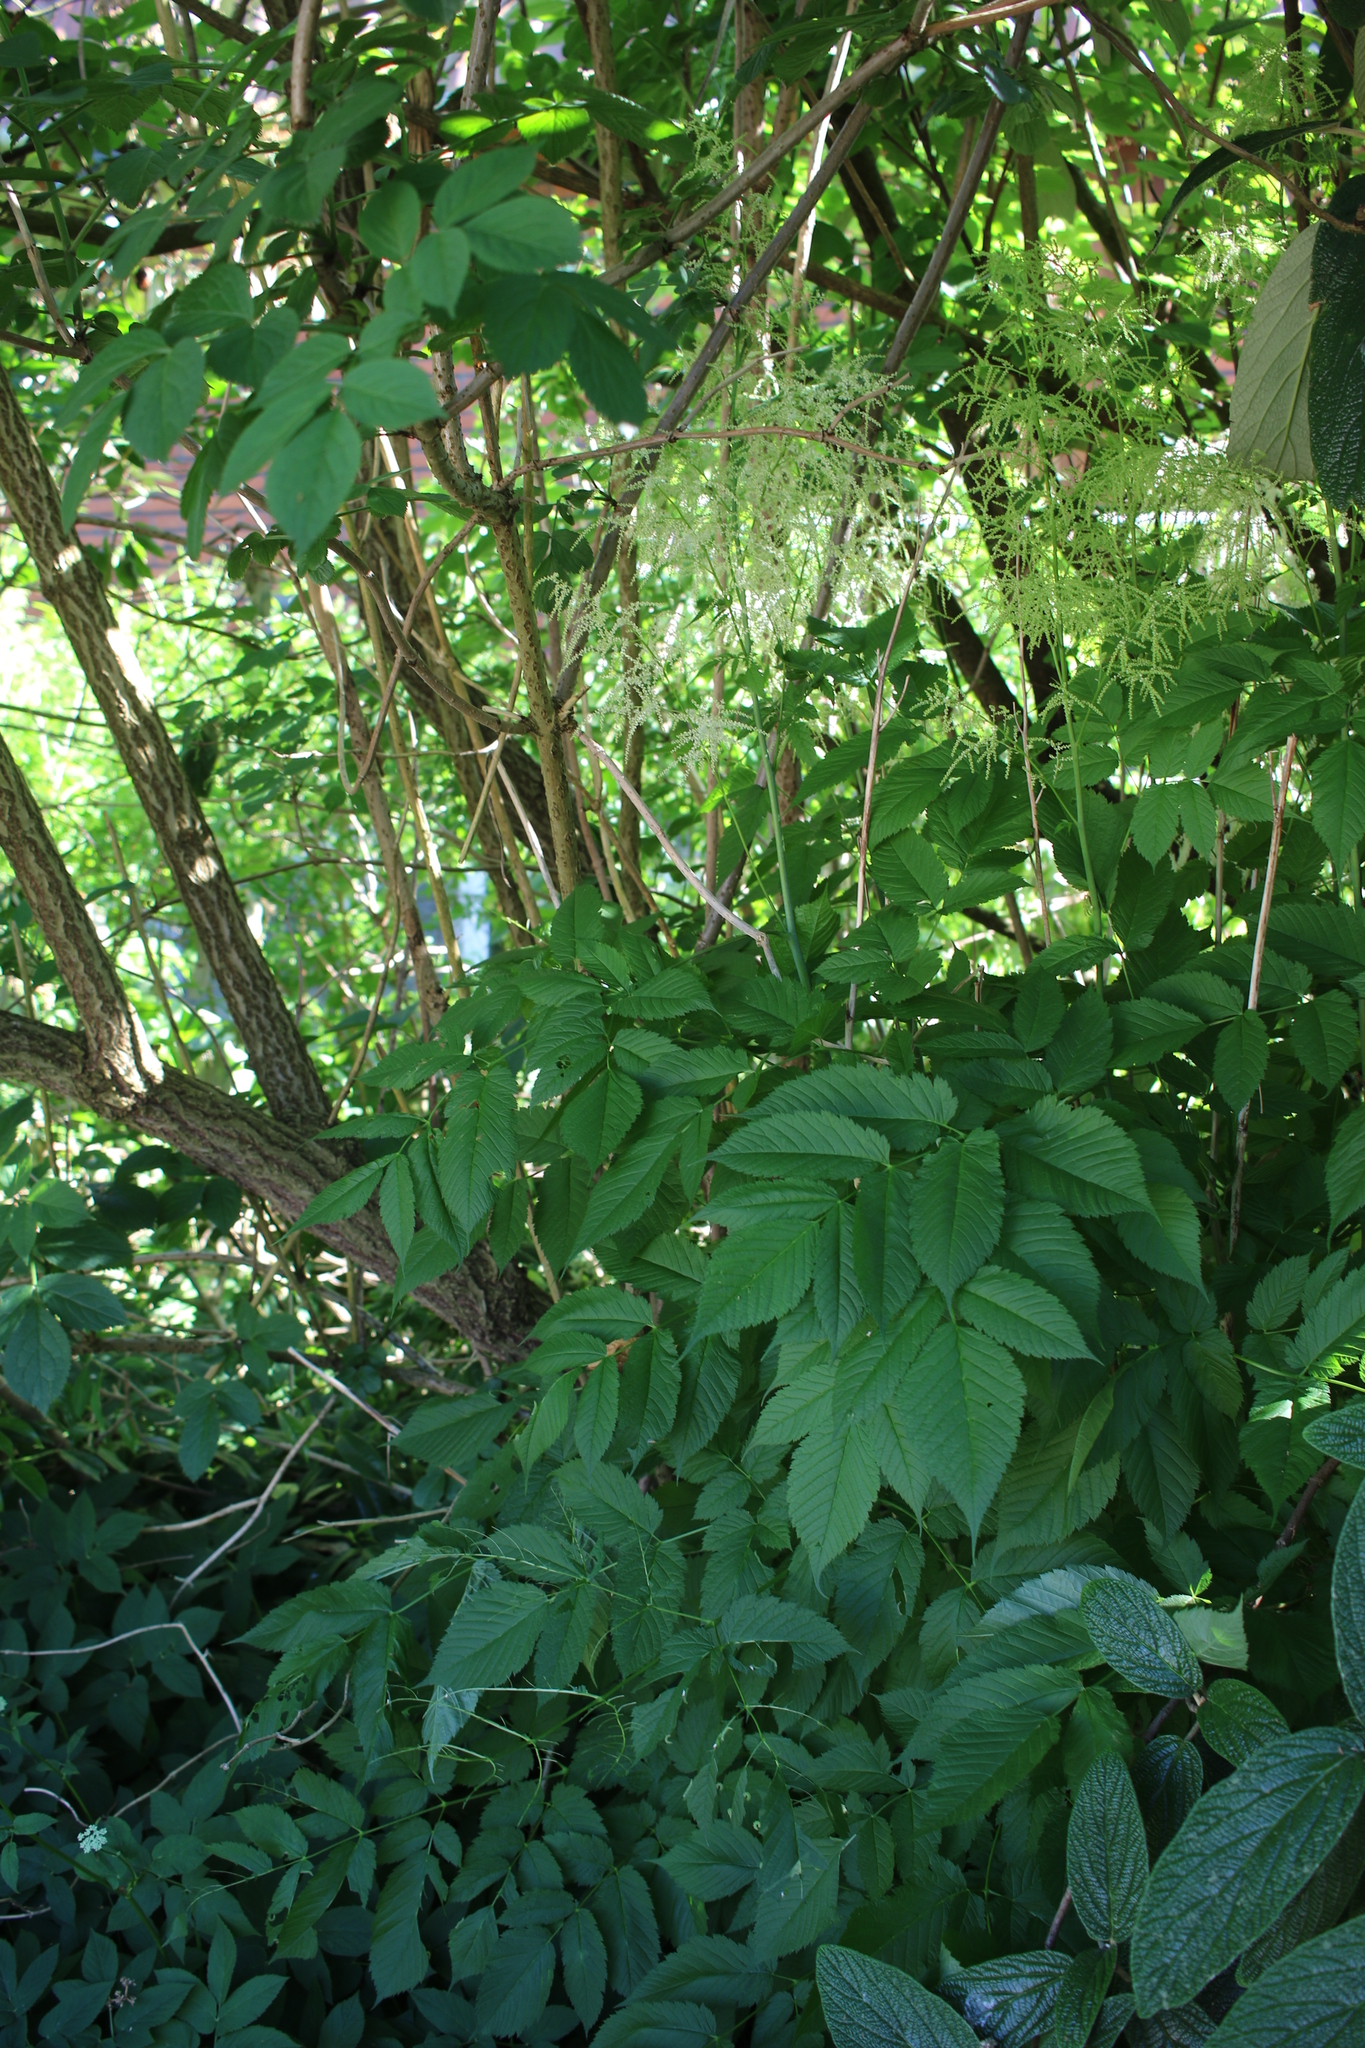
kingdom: Plantae
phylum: Tracheophyta
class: Magnoliopsida
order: Rosales
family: Rosaceae
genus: Aruncus
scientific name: Aruncus dioicus
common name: Buck's-beard
